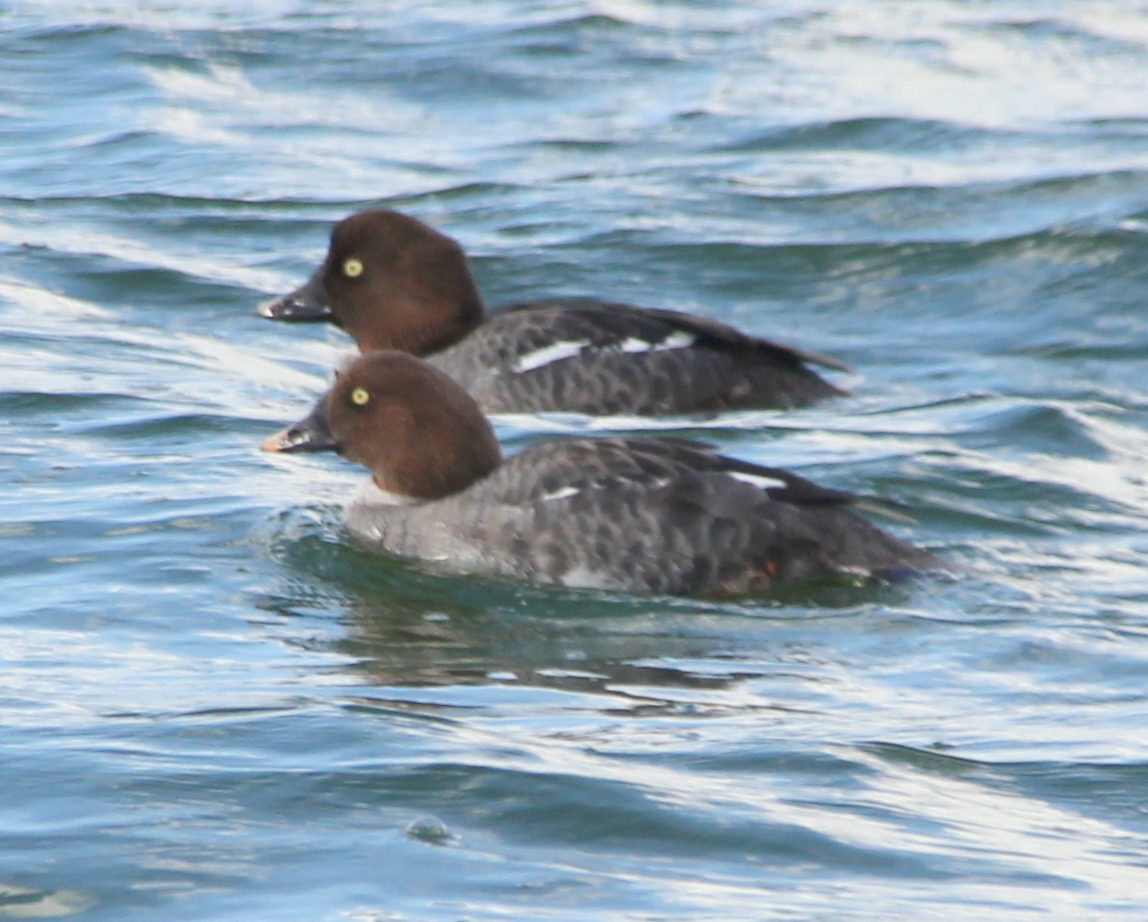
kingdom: Animalia
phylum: Chordata
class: Aves
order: Anseriformes
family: Anatidae
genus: Bucephala
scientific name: Bucephala clangula
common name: Common goldeneye
